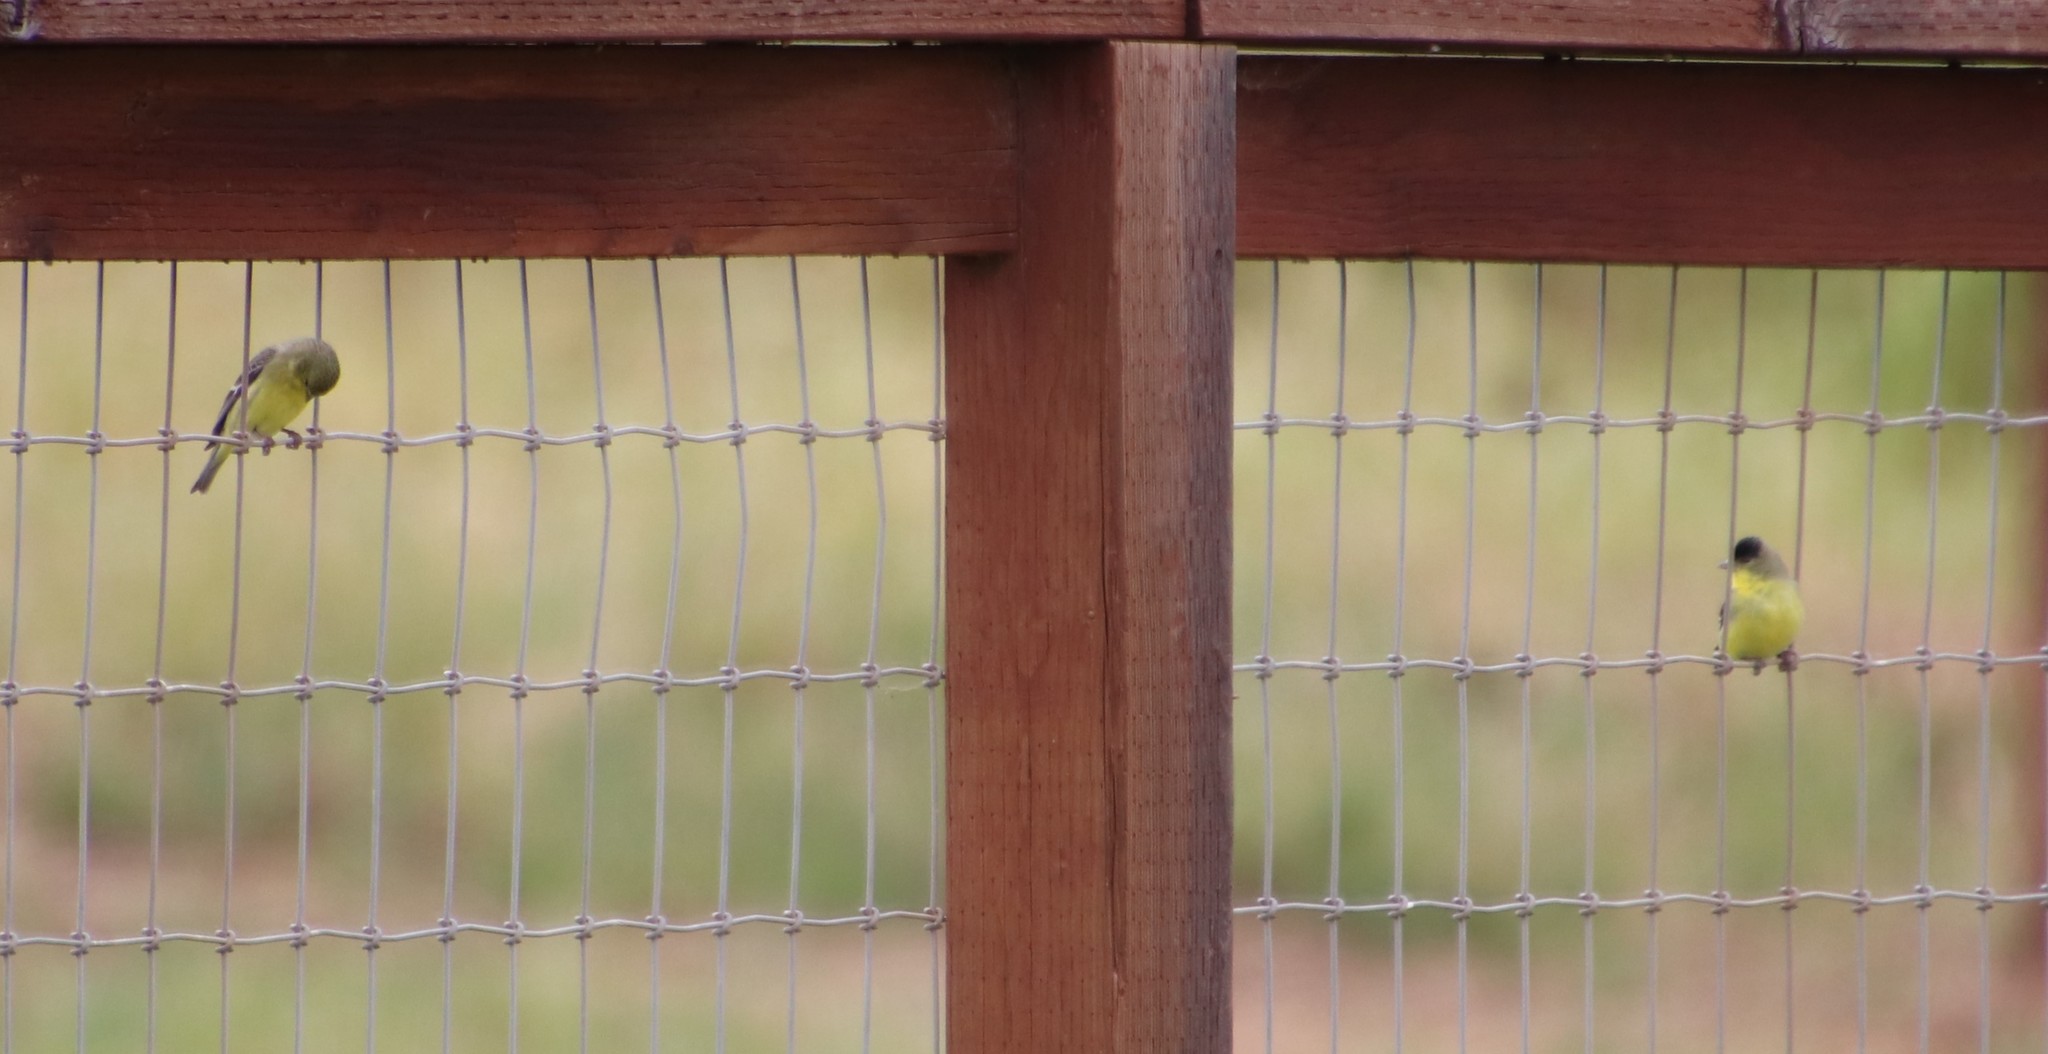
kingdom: Animalia
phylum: Chordata
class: Aves
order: Passeriformes
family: Fringillidae
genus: Spinus
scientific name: Spinus psaltria
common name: Lesser goldfinch
